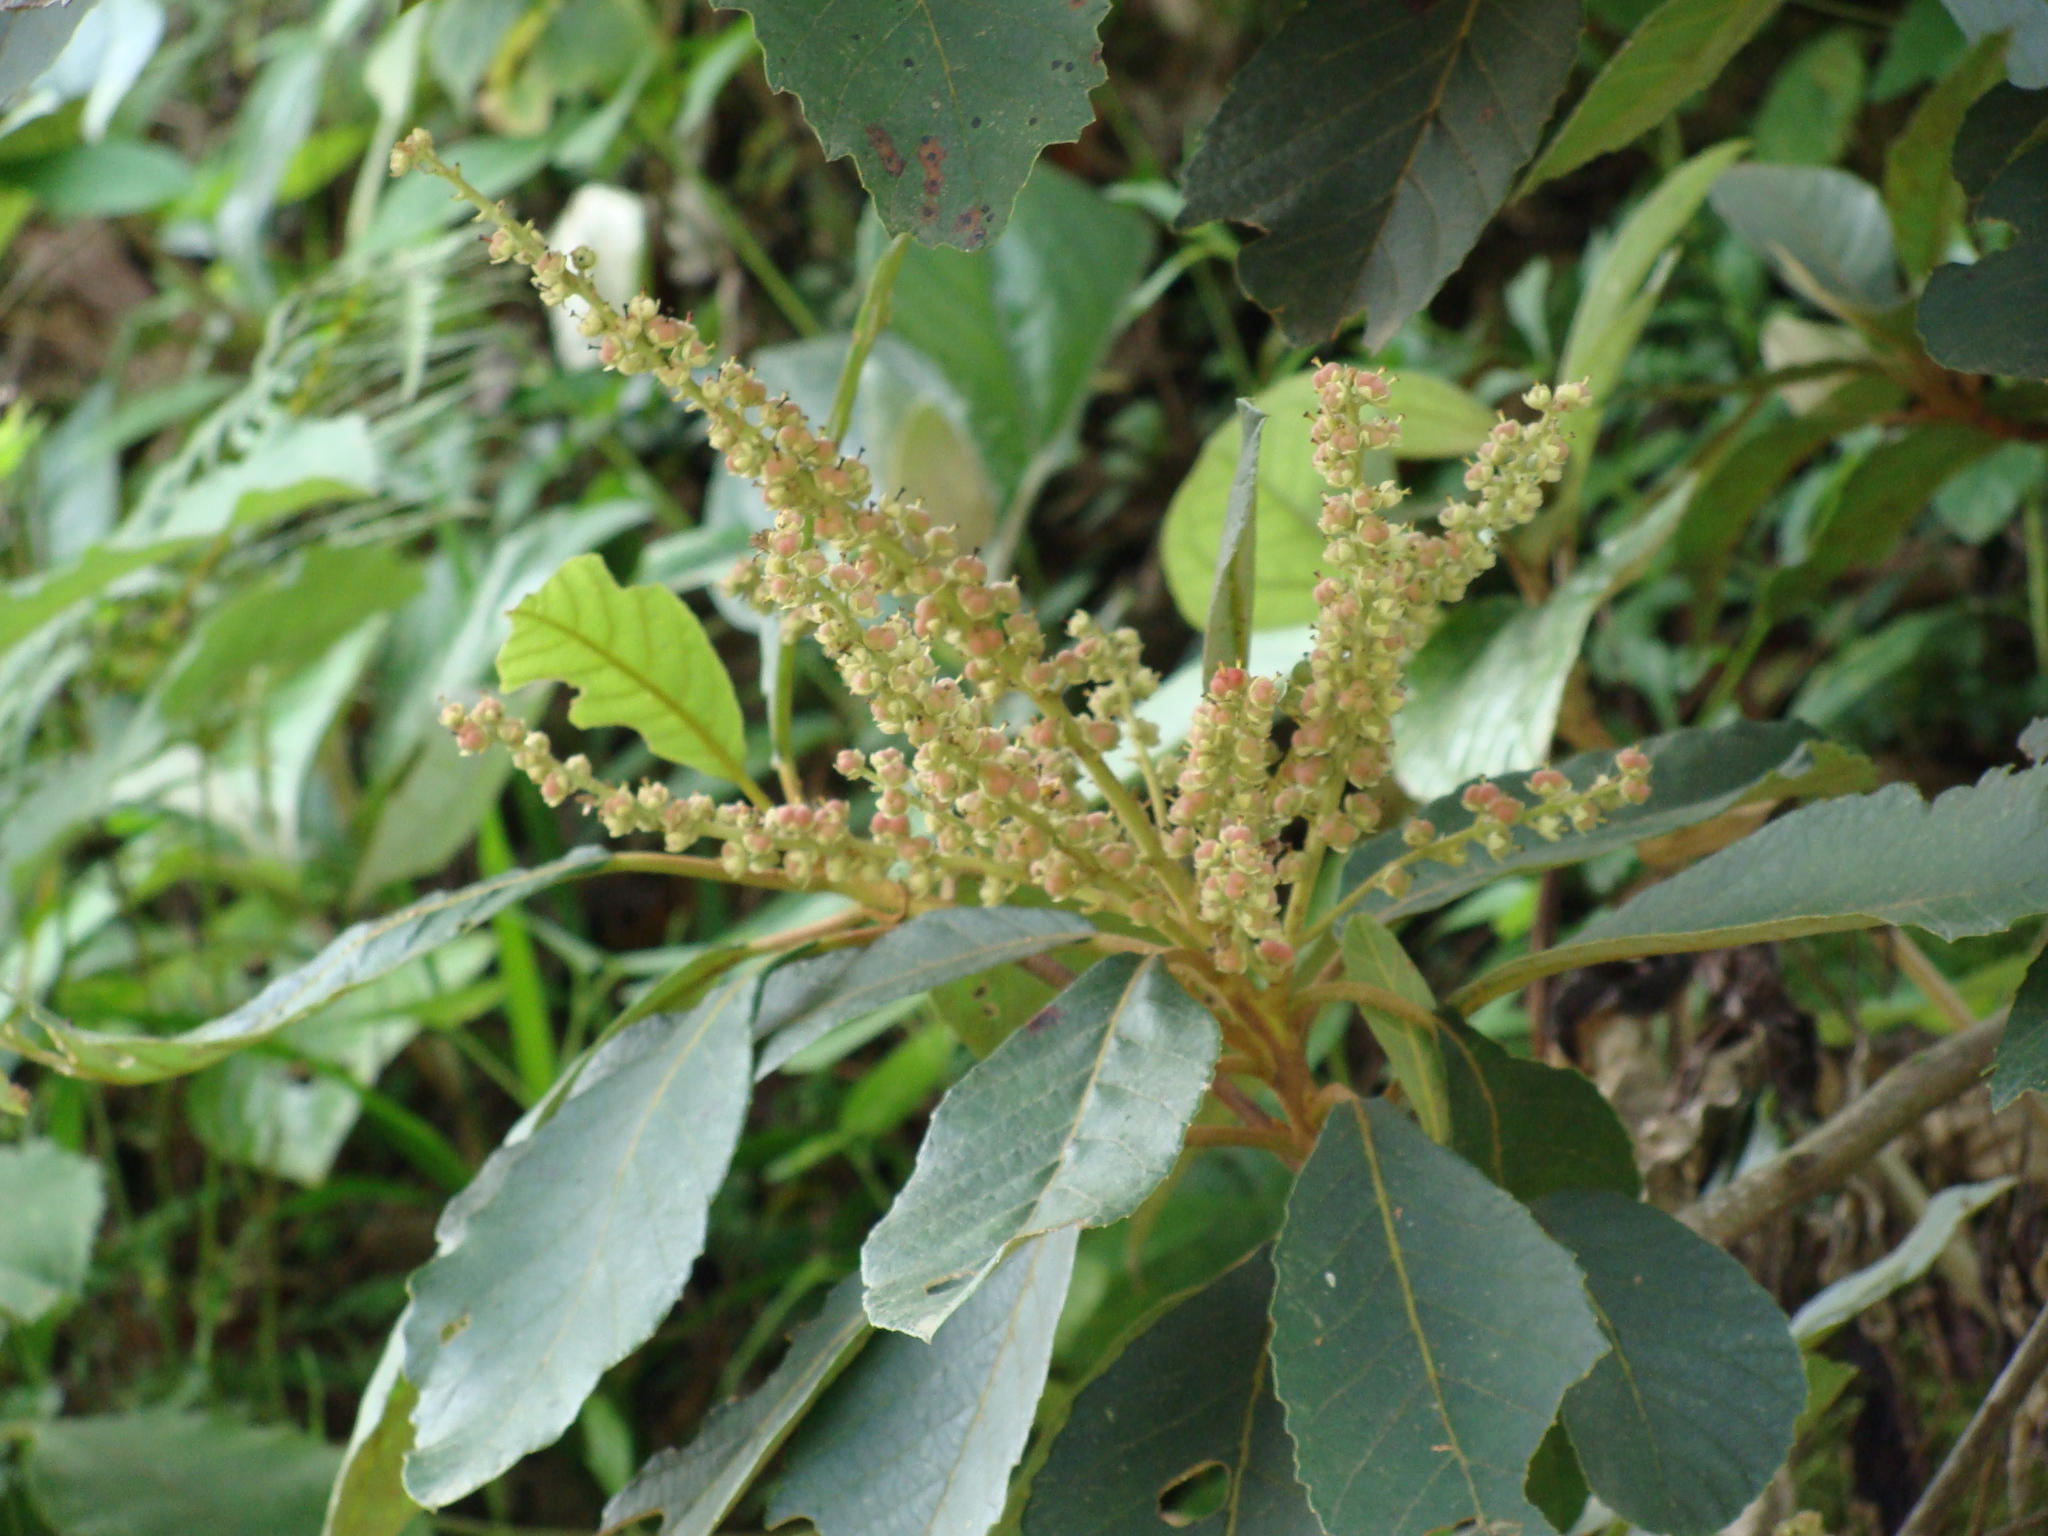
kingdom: Plantae
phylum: Tracheophyta
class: Magnoliopsida
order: Ericales
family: Clethraceae
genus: Clethra
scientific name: Clethra mexicana
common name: Nance macho
